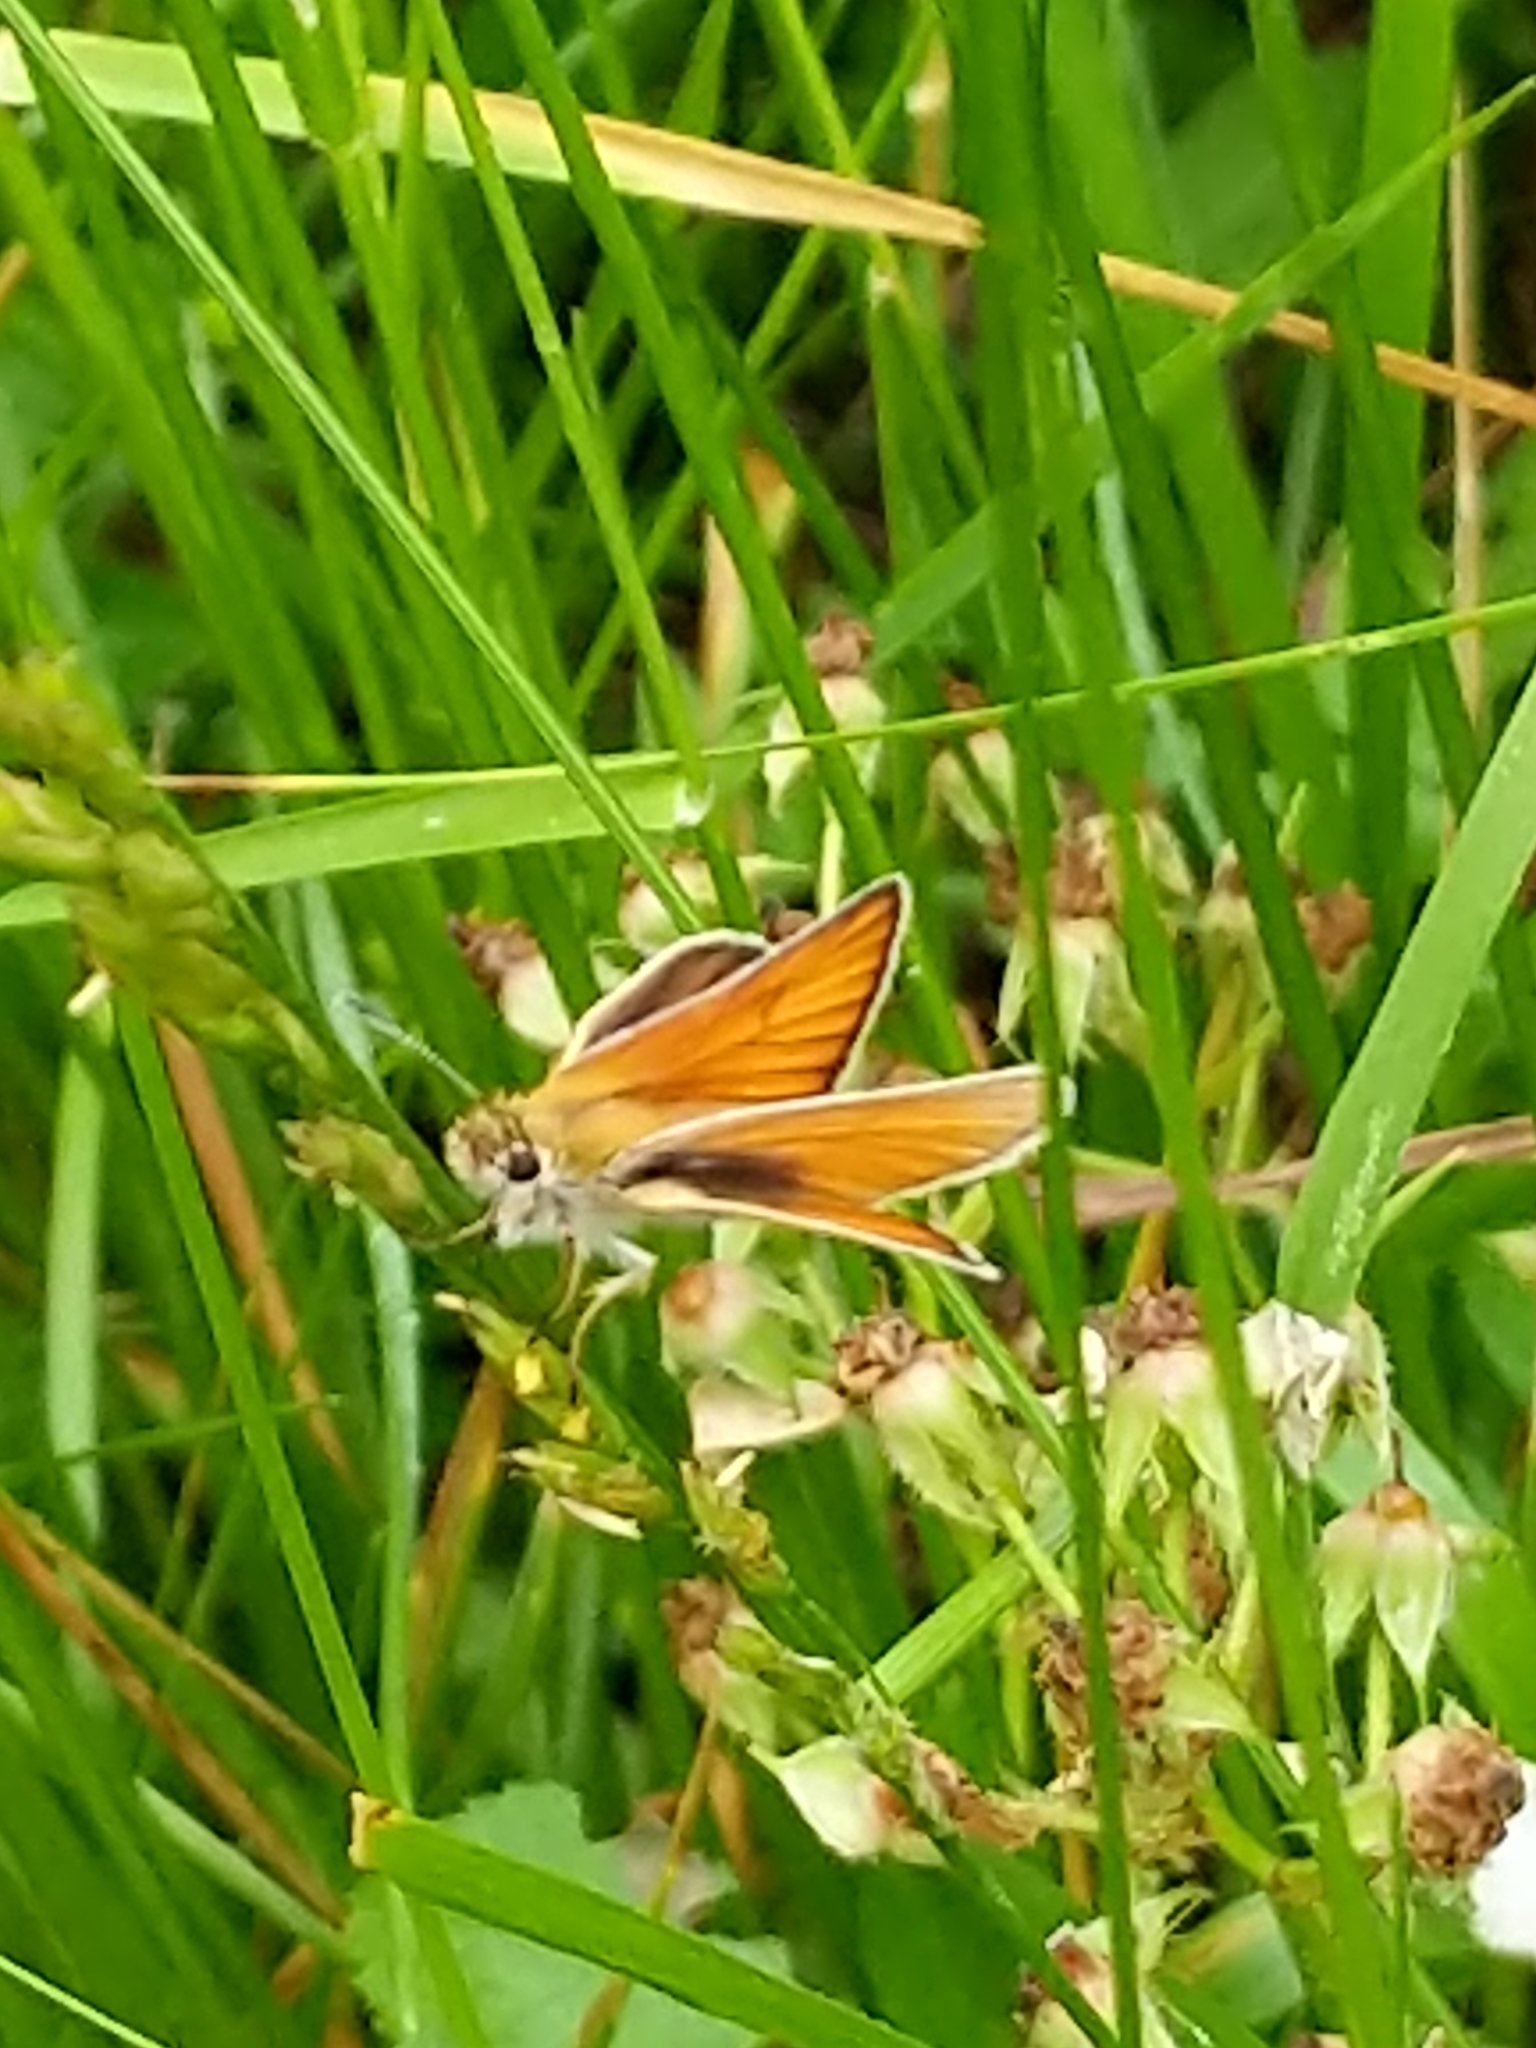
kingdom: Animalia
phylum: Arthropoda
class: Insecta
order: Lepidoptera
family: Hesperiidae
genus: Thymelicus
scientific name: Thymelicus lineola
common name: Essex skipper
